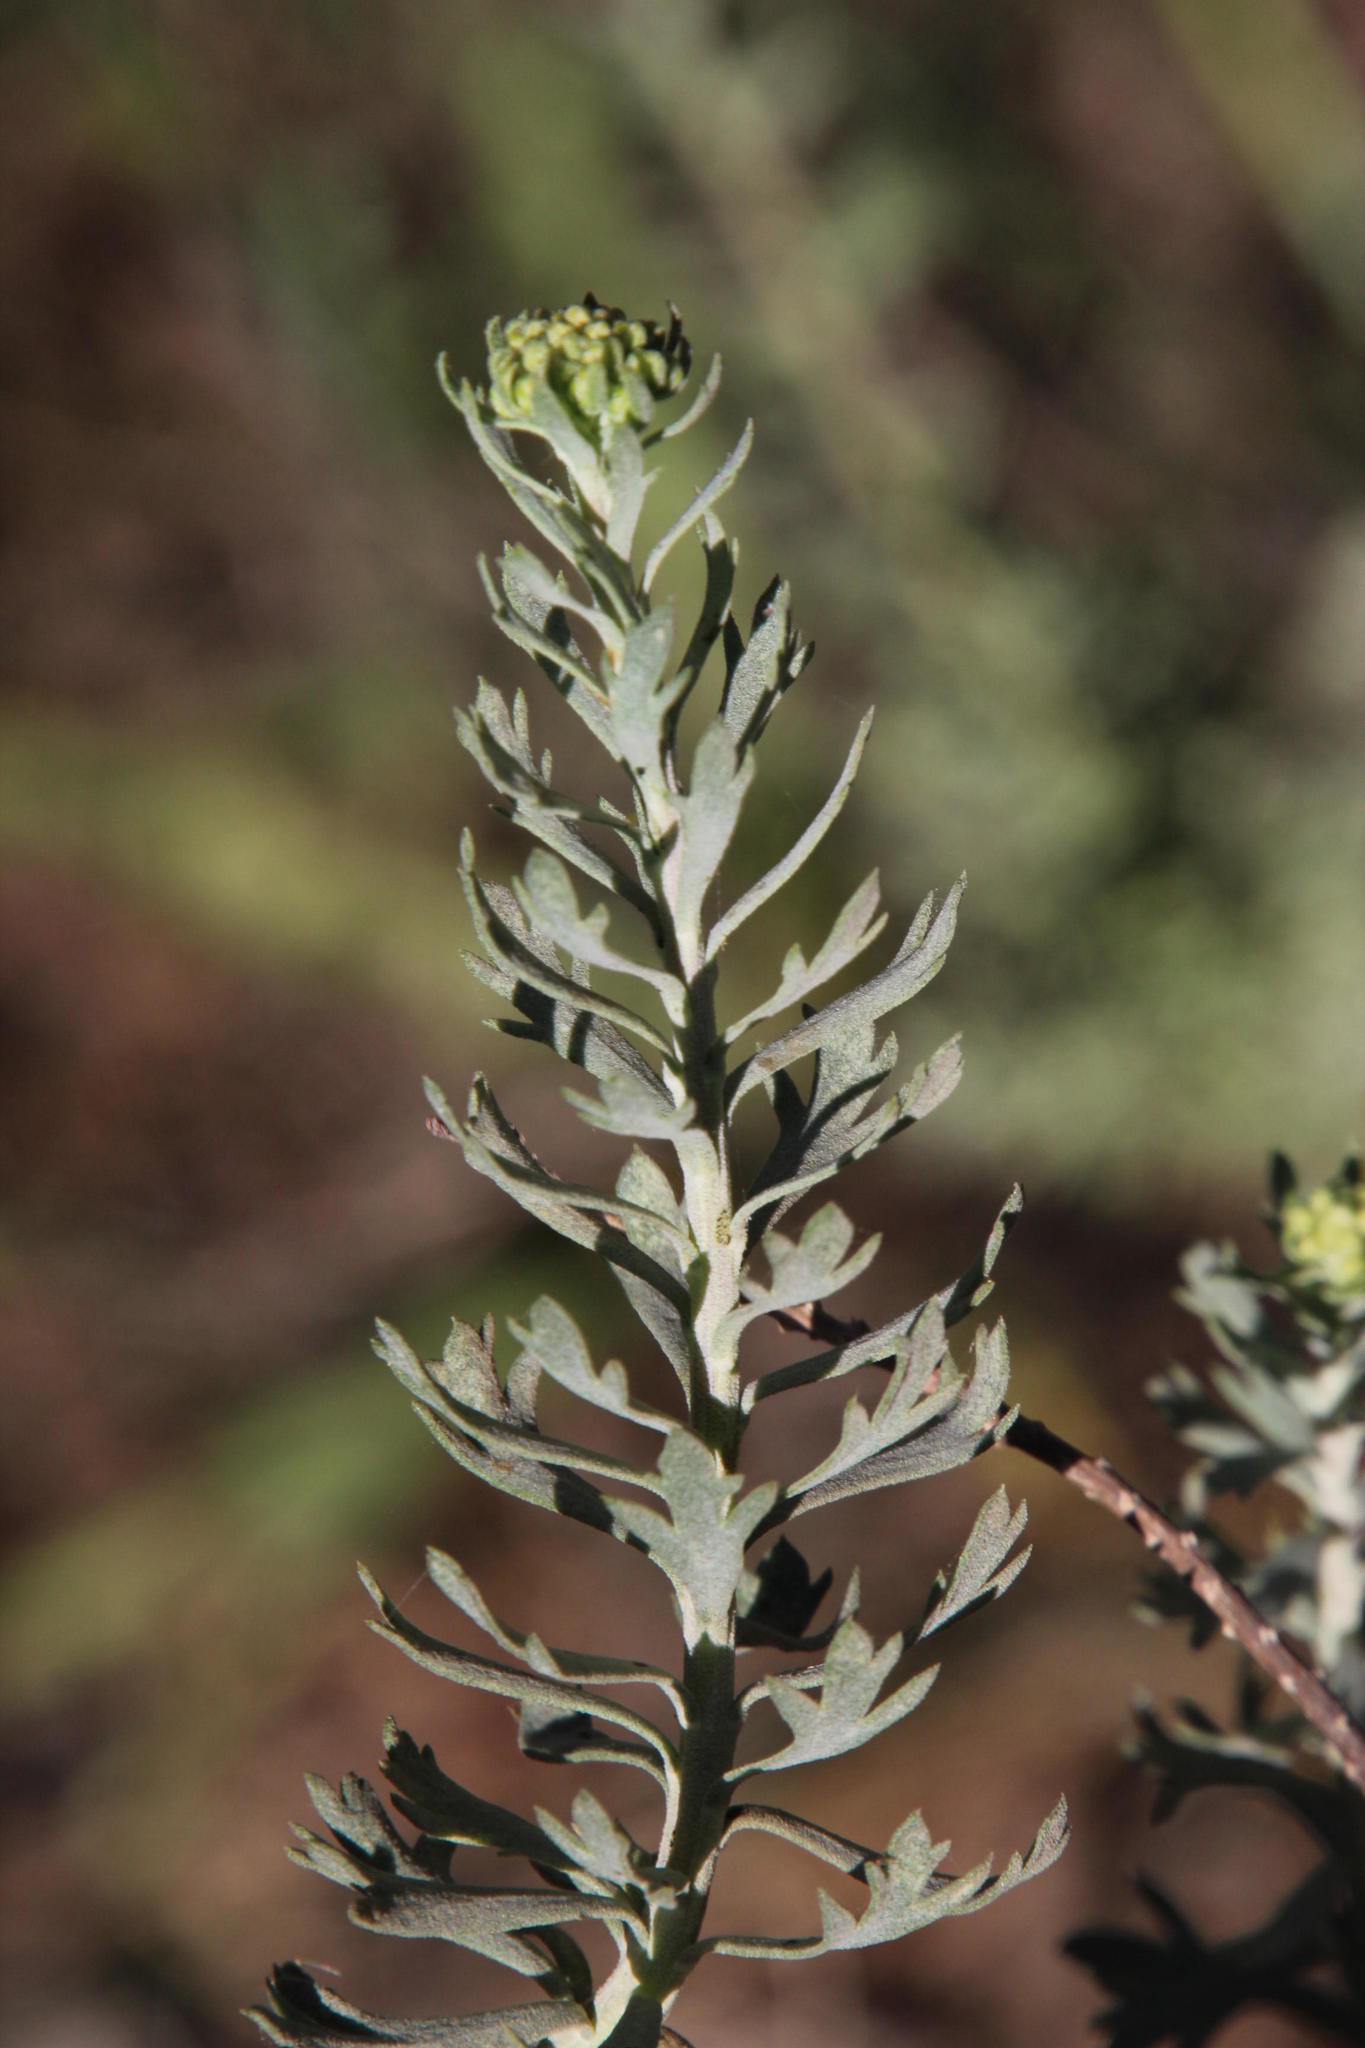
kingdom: Plantae
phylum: Tracheophyta
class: Magnoliopsida
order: Asterales
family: Asteraceae
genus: Athanasia
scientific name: Athanasia trifurcata
